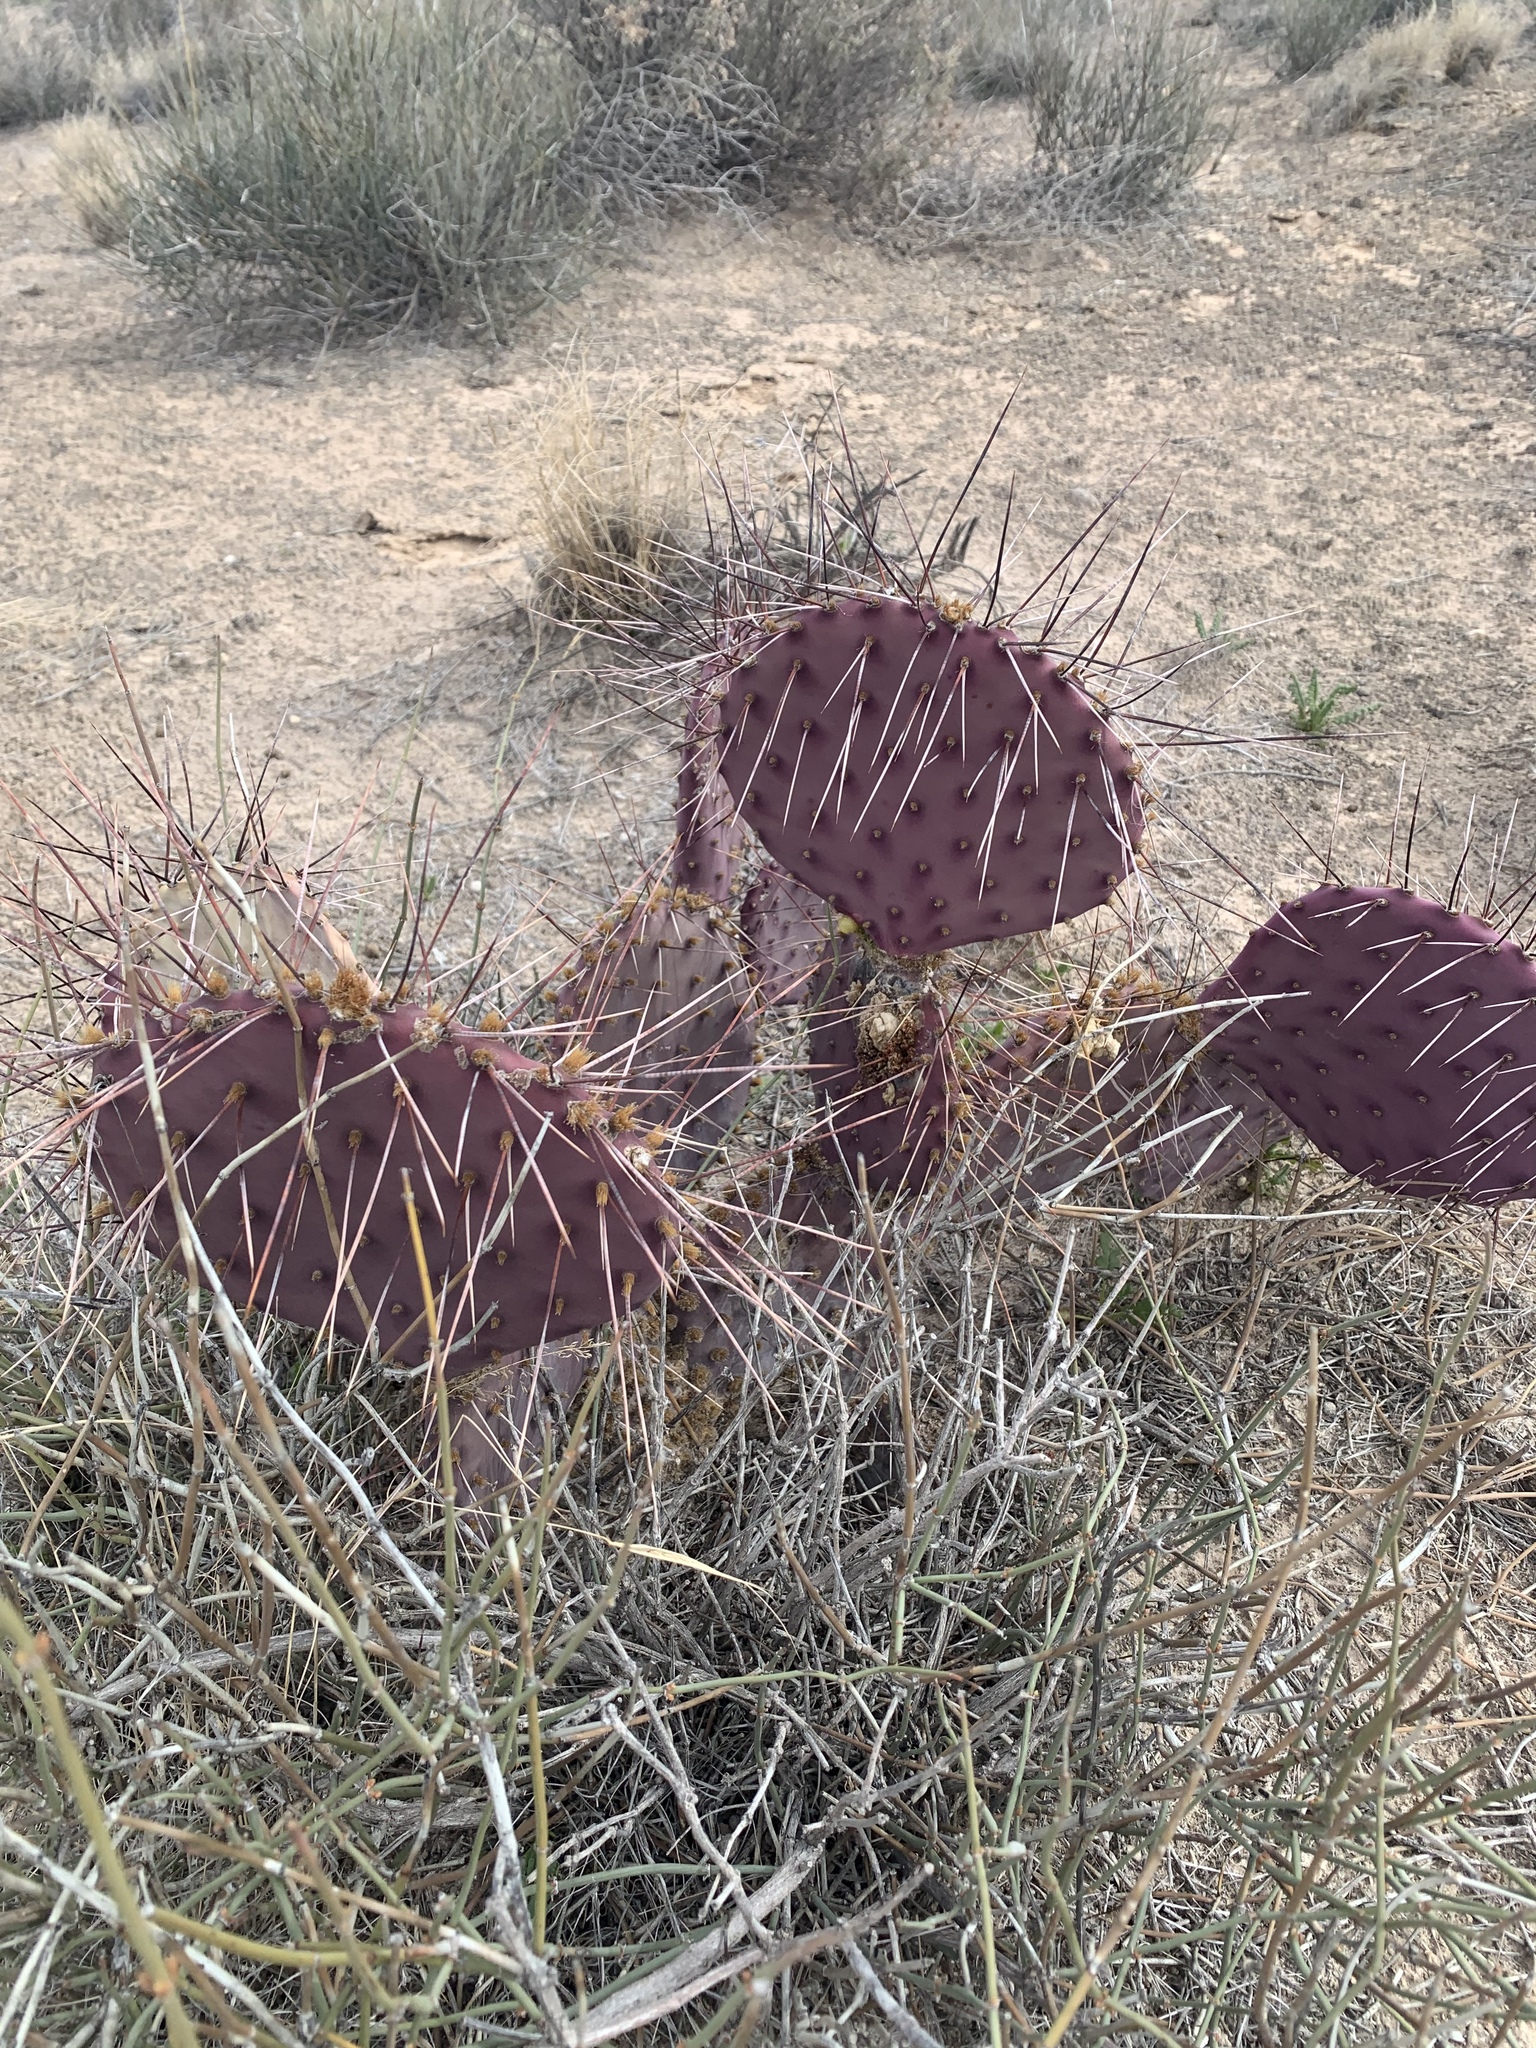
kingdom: Plantae
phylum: Tracheophyta
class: Magnoliopsida
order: Caryophyllales
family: Cactaceae
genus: Opuntia
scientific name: Opuntia macrocentra
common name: Purple prickly-pear
